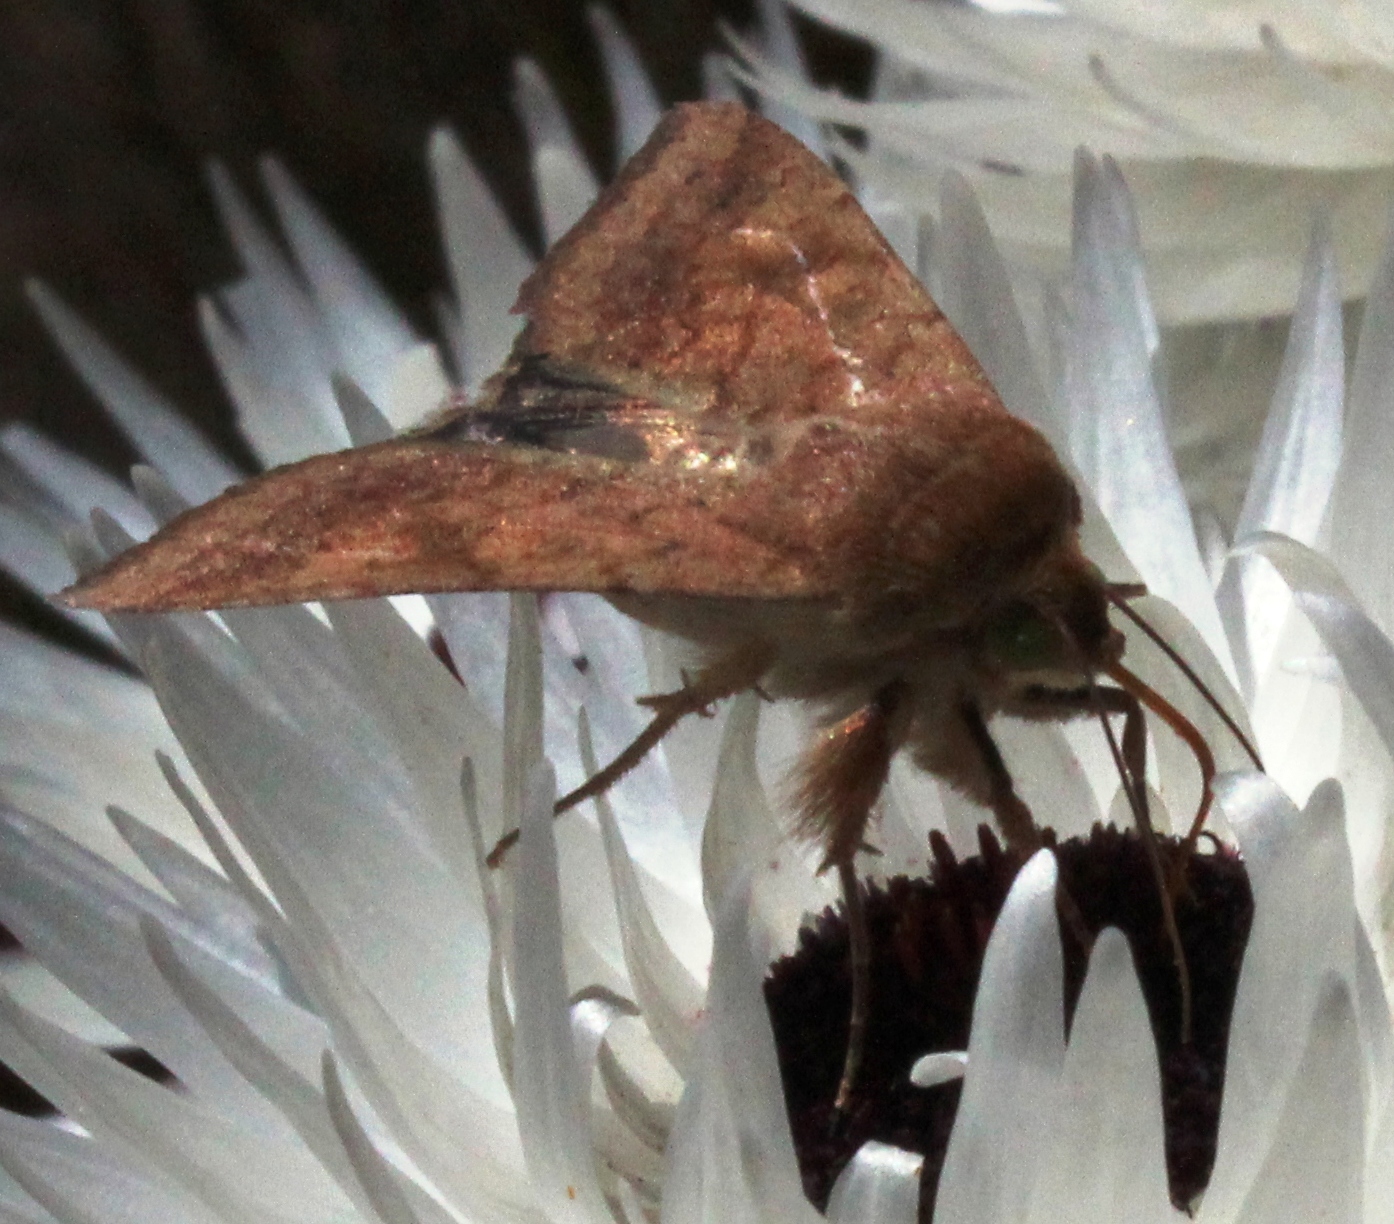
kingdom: Animalia
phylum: Arthropoda
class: Insecta
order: Lepidoptera
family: Noctuidae
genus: Helicoverpa
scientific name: Helicoverpa armigera
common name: Cotton bollworm
